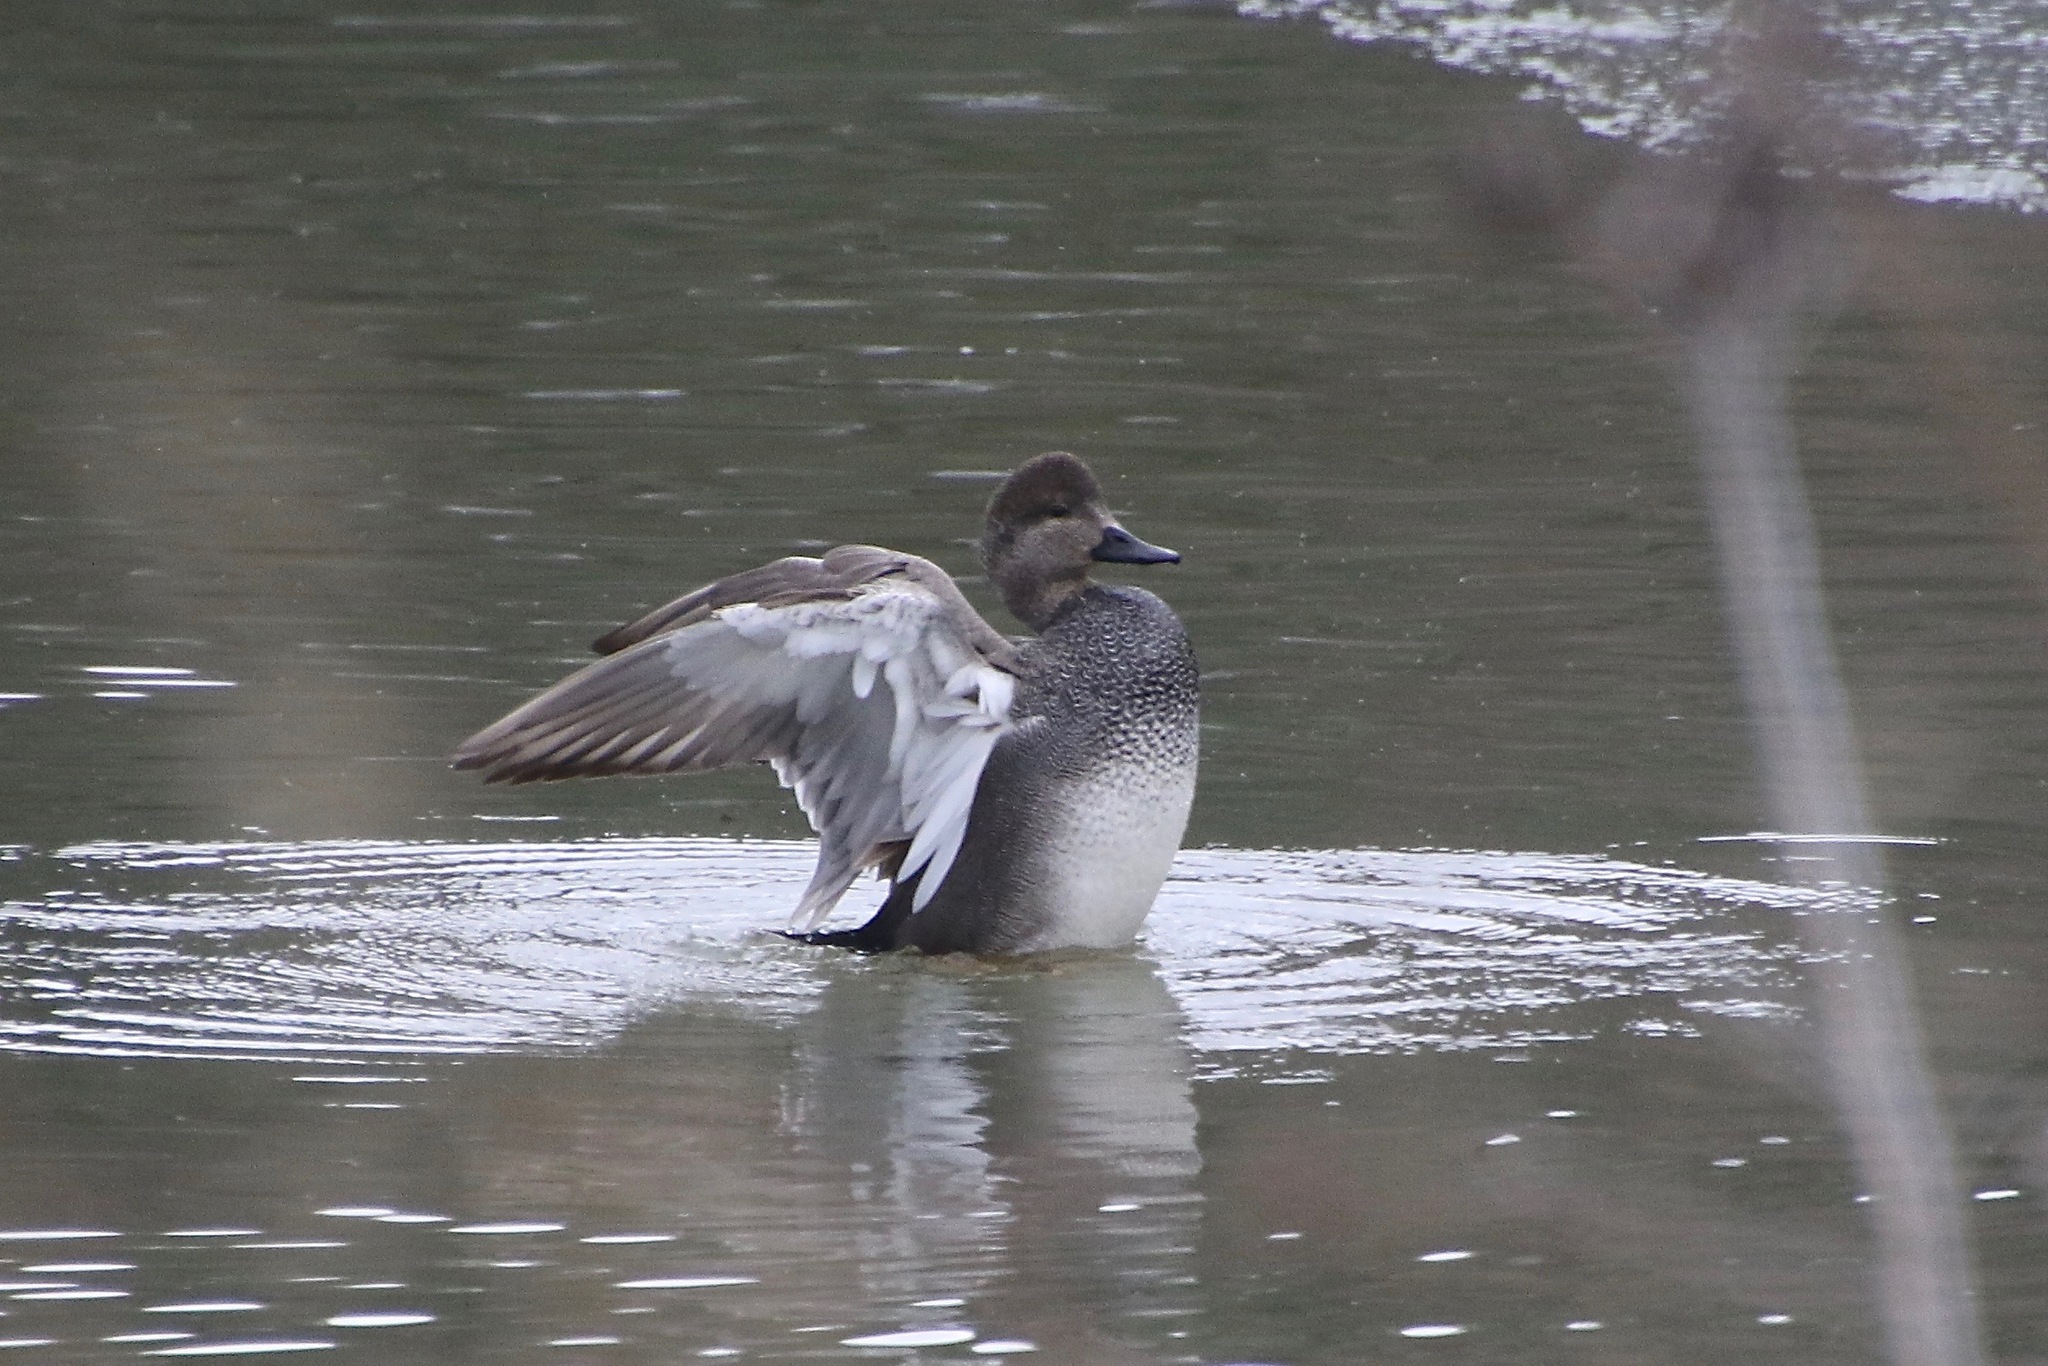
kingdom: Animalia
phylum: Chordata
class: Aves
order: Anseriformes
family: Anatidae
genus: Mareca
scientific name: Mareca strepera
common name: Gadwall
